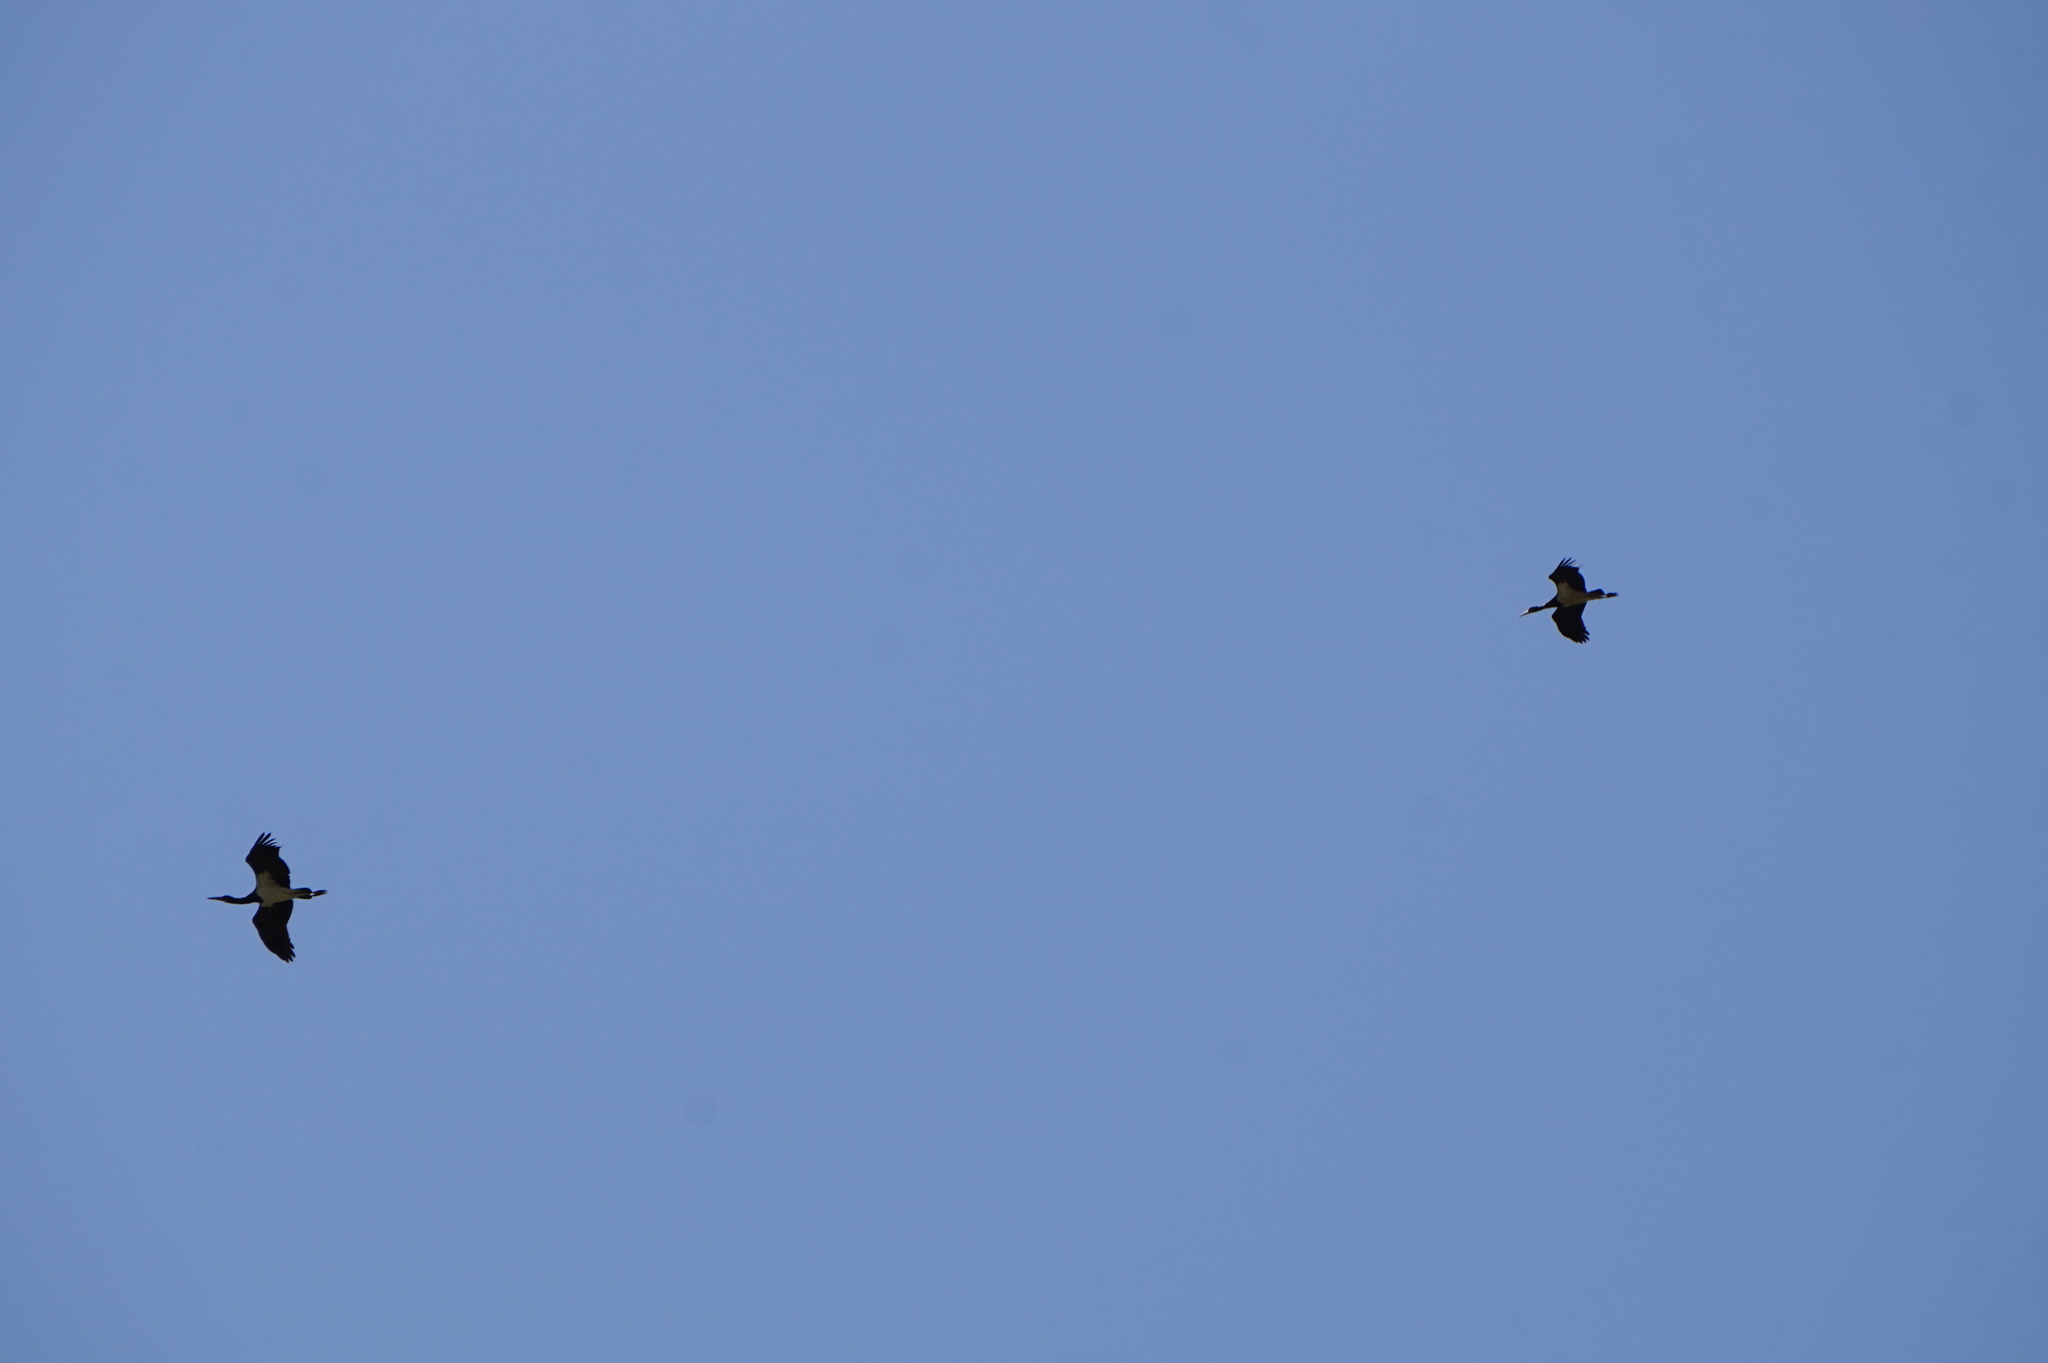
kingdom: Animalia
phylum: Chordata
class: Aves
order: Ciconiiformes
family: Ciconiidae
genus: Ciconia
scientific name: Ciconia abdimii
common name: Abdim's stork
